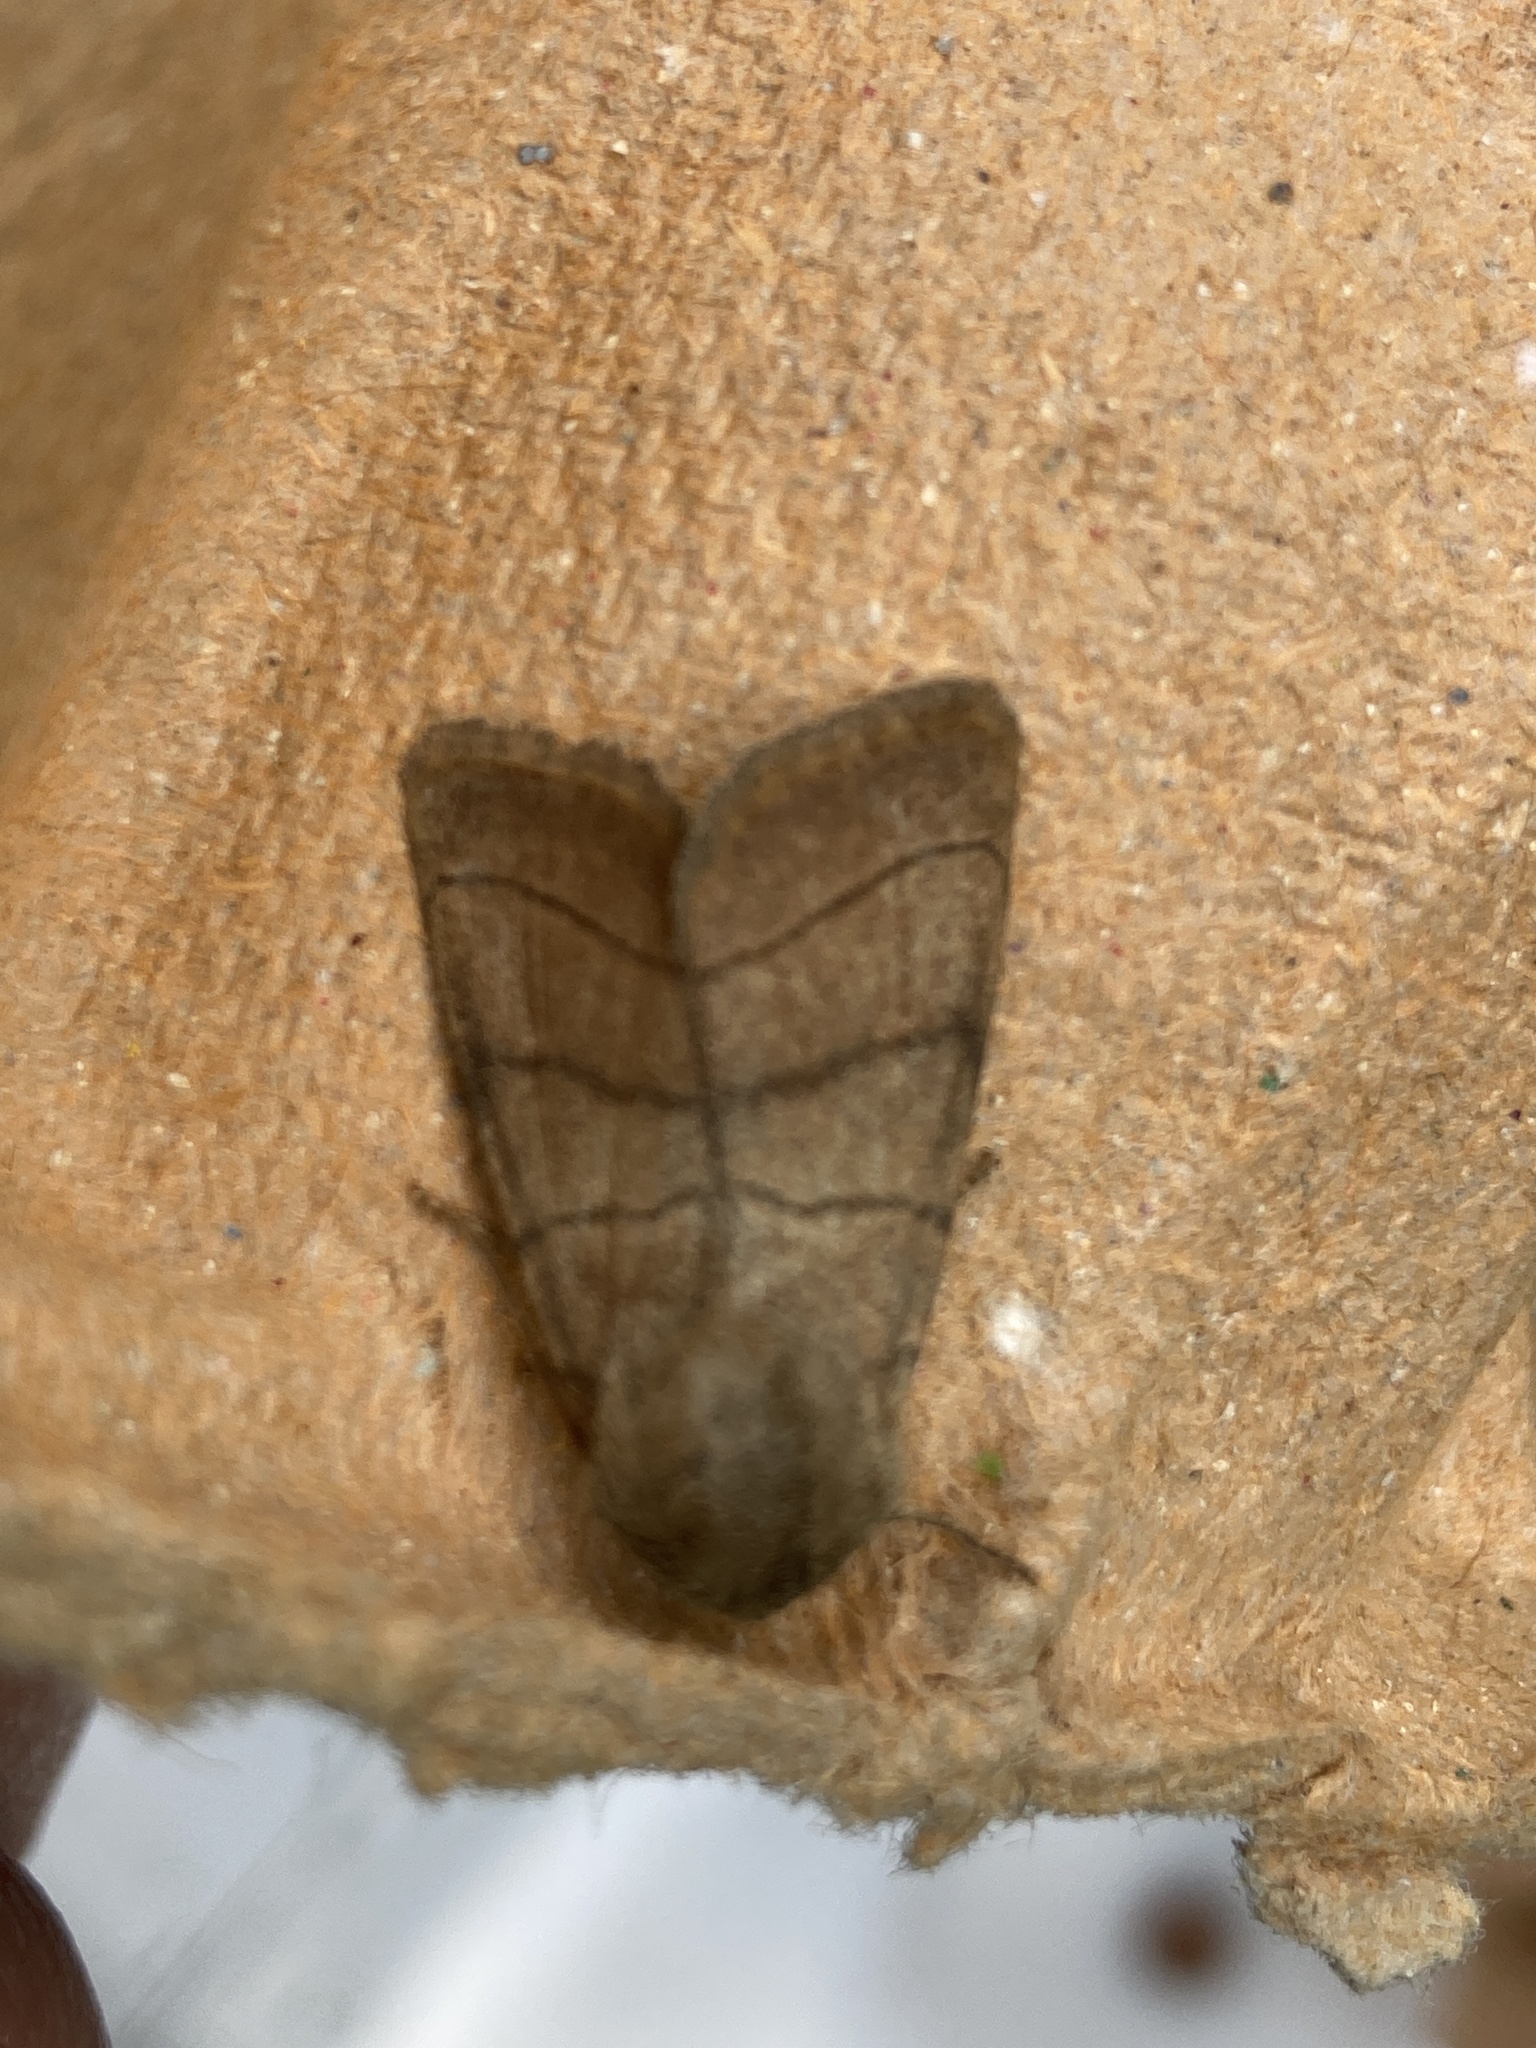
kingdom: Animalia
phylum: Arthropoda
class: Insecta
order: Lepidoptera
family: Noctuidae
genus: Charanyca
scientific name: Charanyca trigrammica
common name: Treble lines
